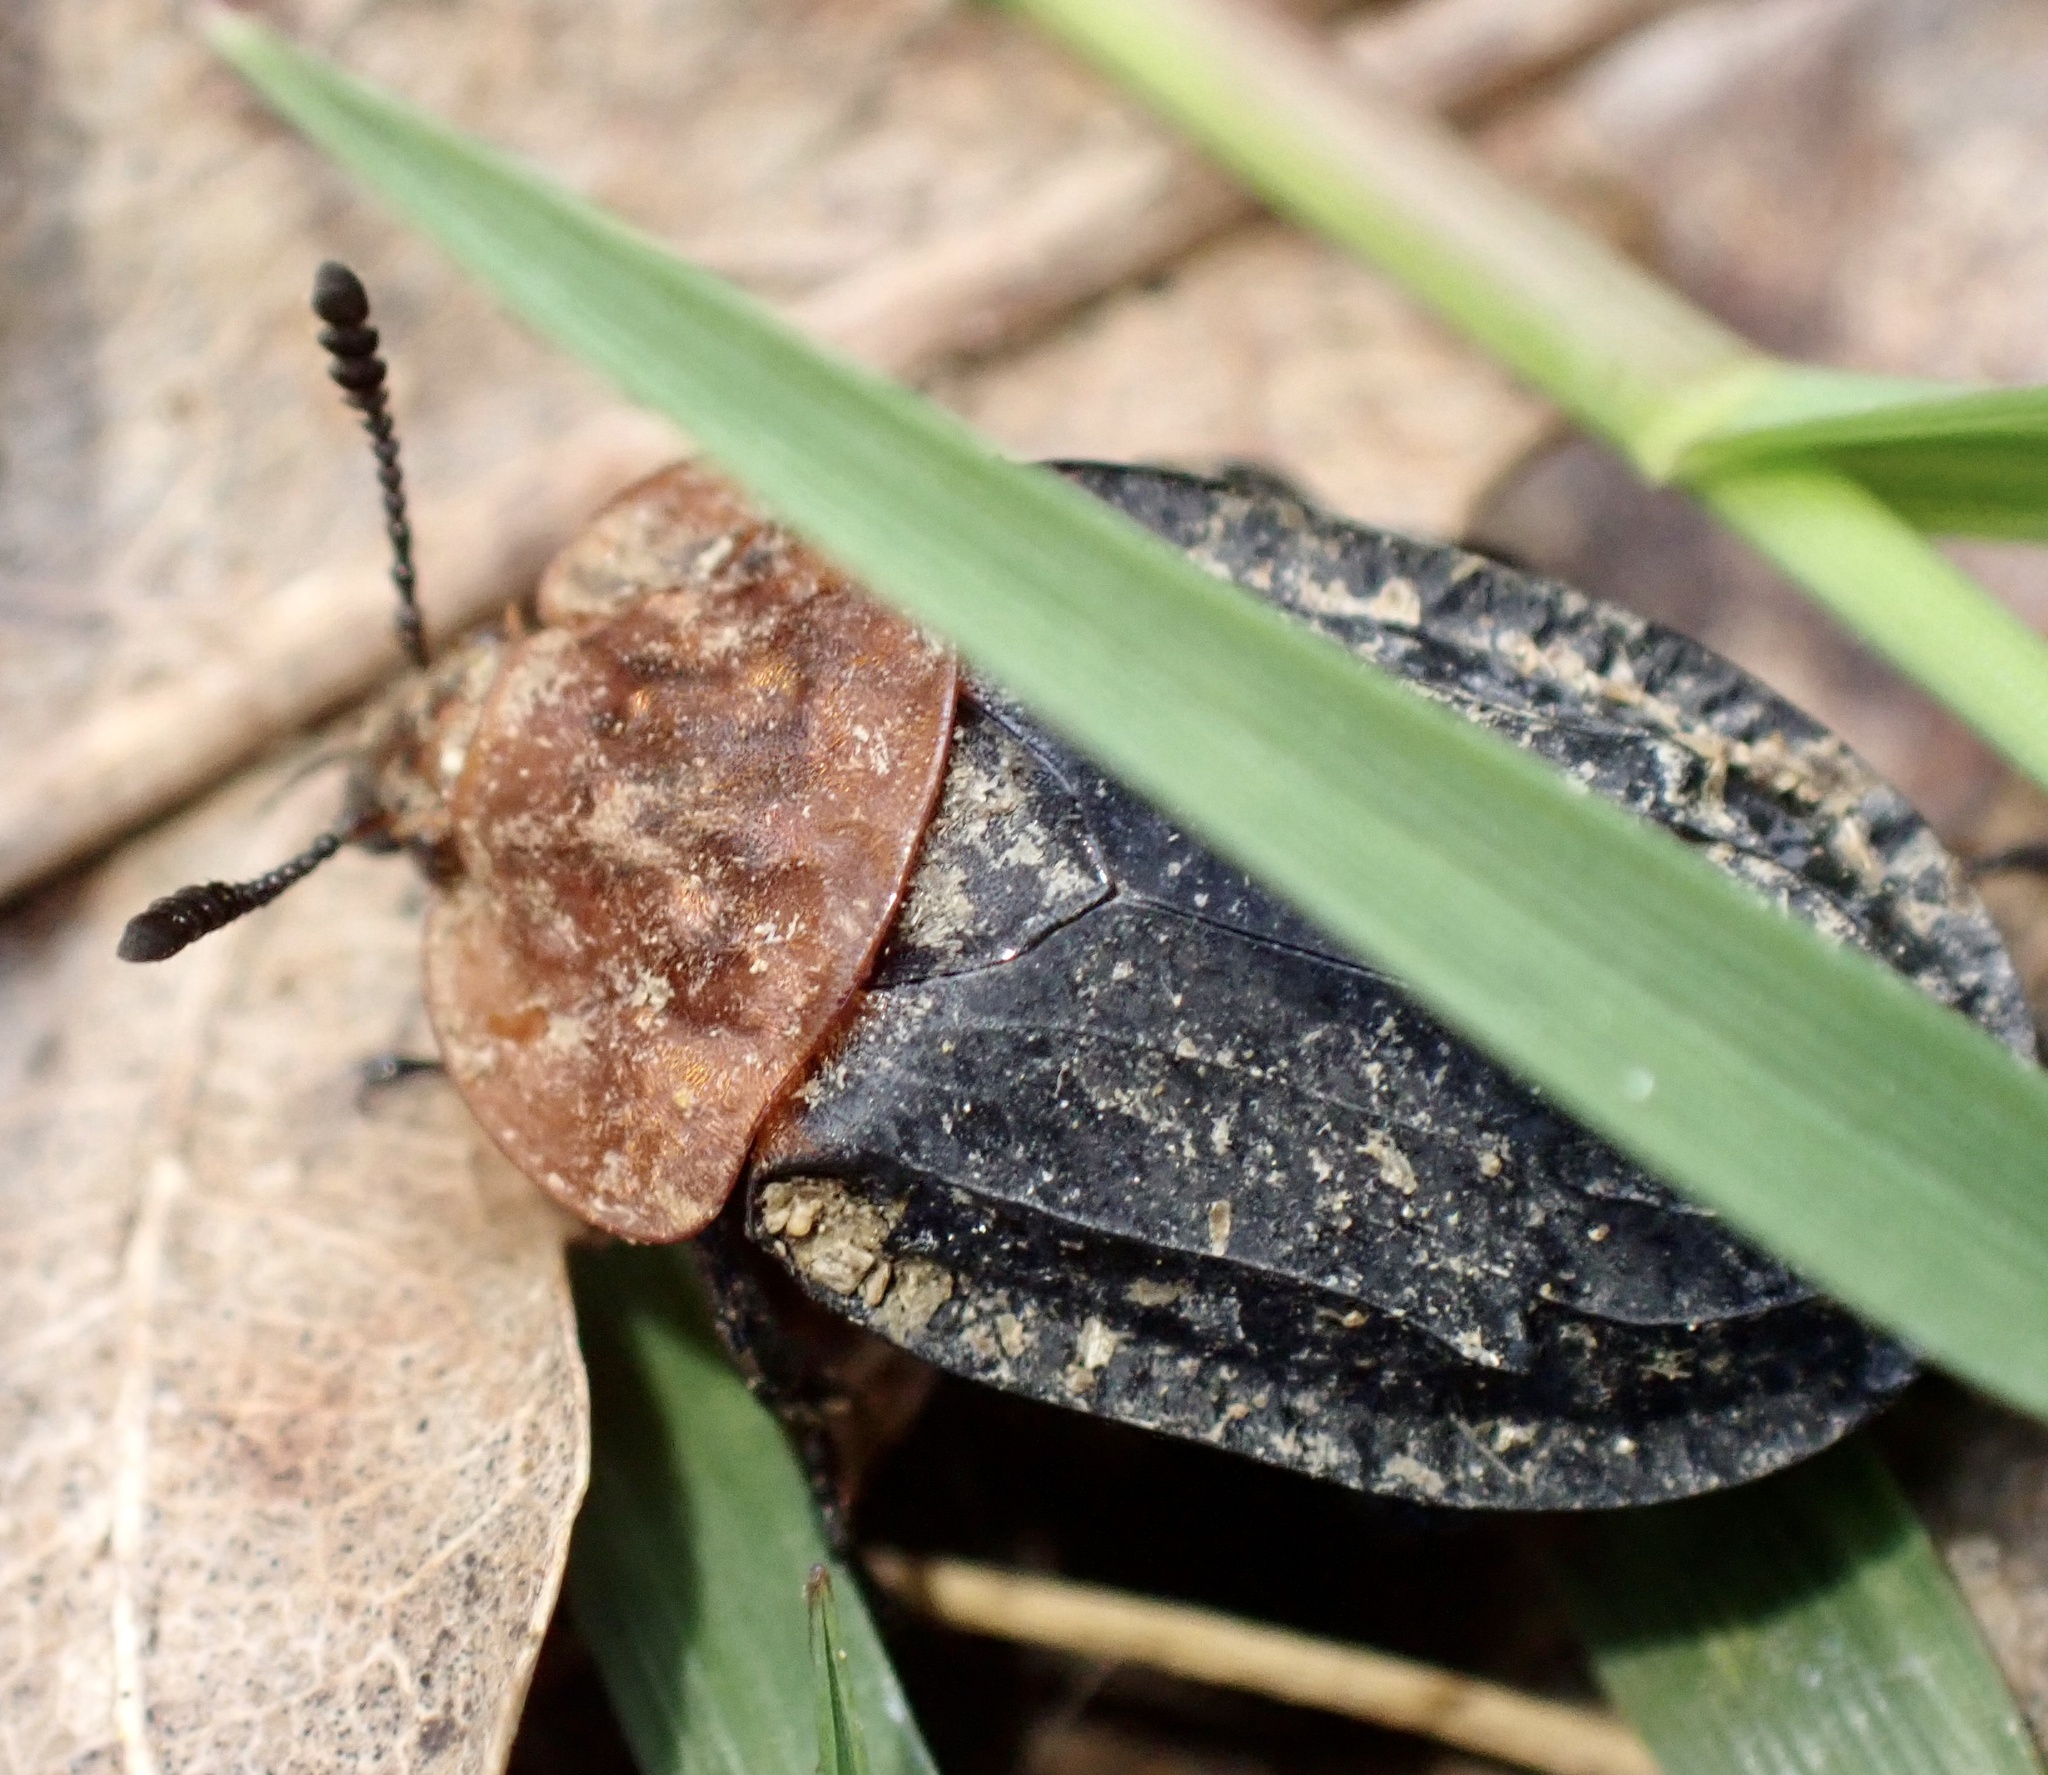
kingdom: Animalia
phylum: Arthropoda
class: Insecta
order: Coleoptera
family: Staphylinidae
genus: Oiceoptoma
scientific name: Oiceoptoma thoracicum
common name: Red-breasted carrion beetle
